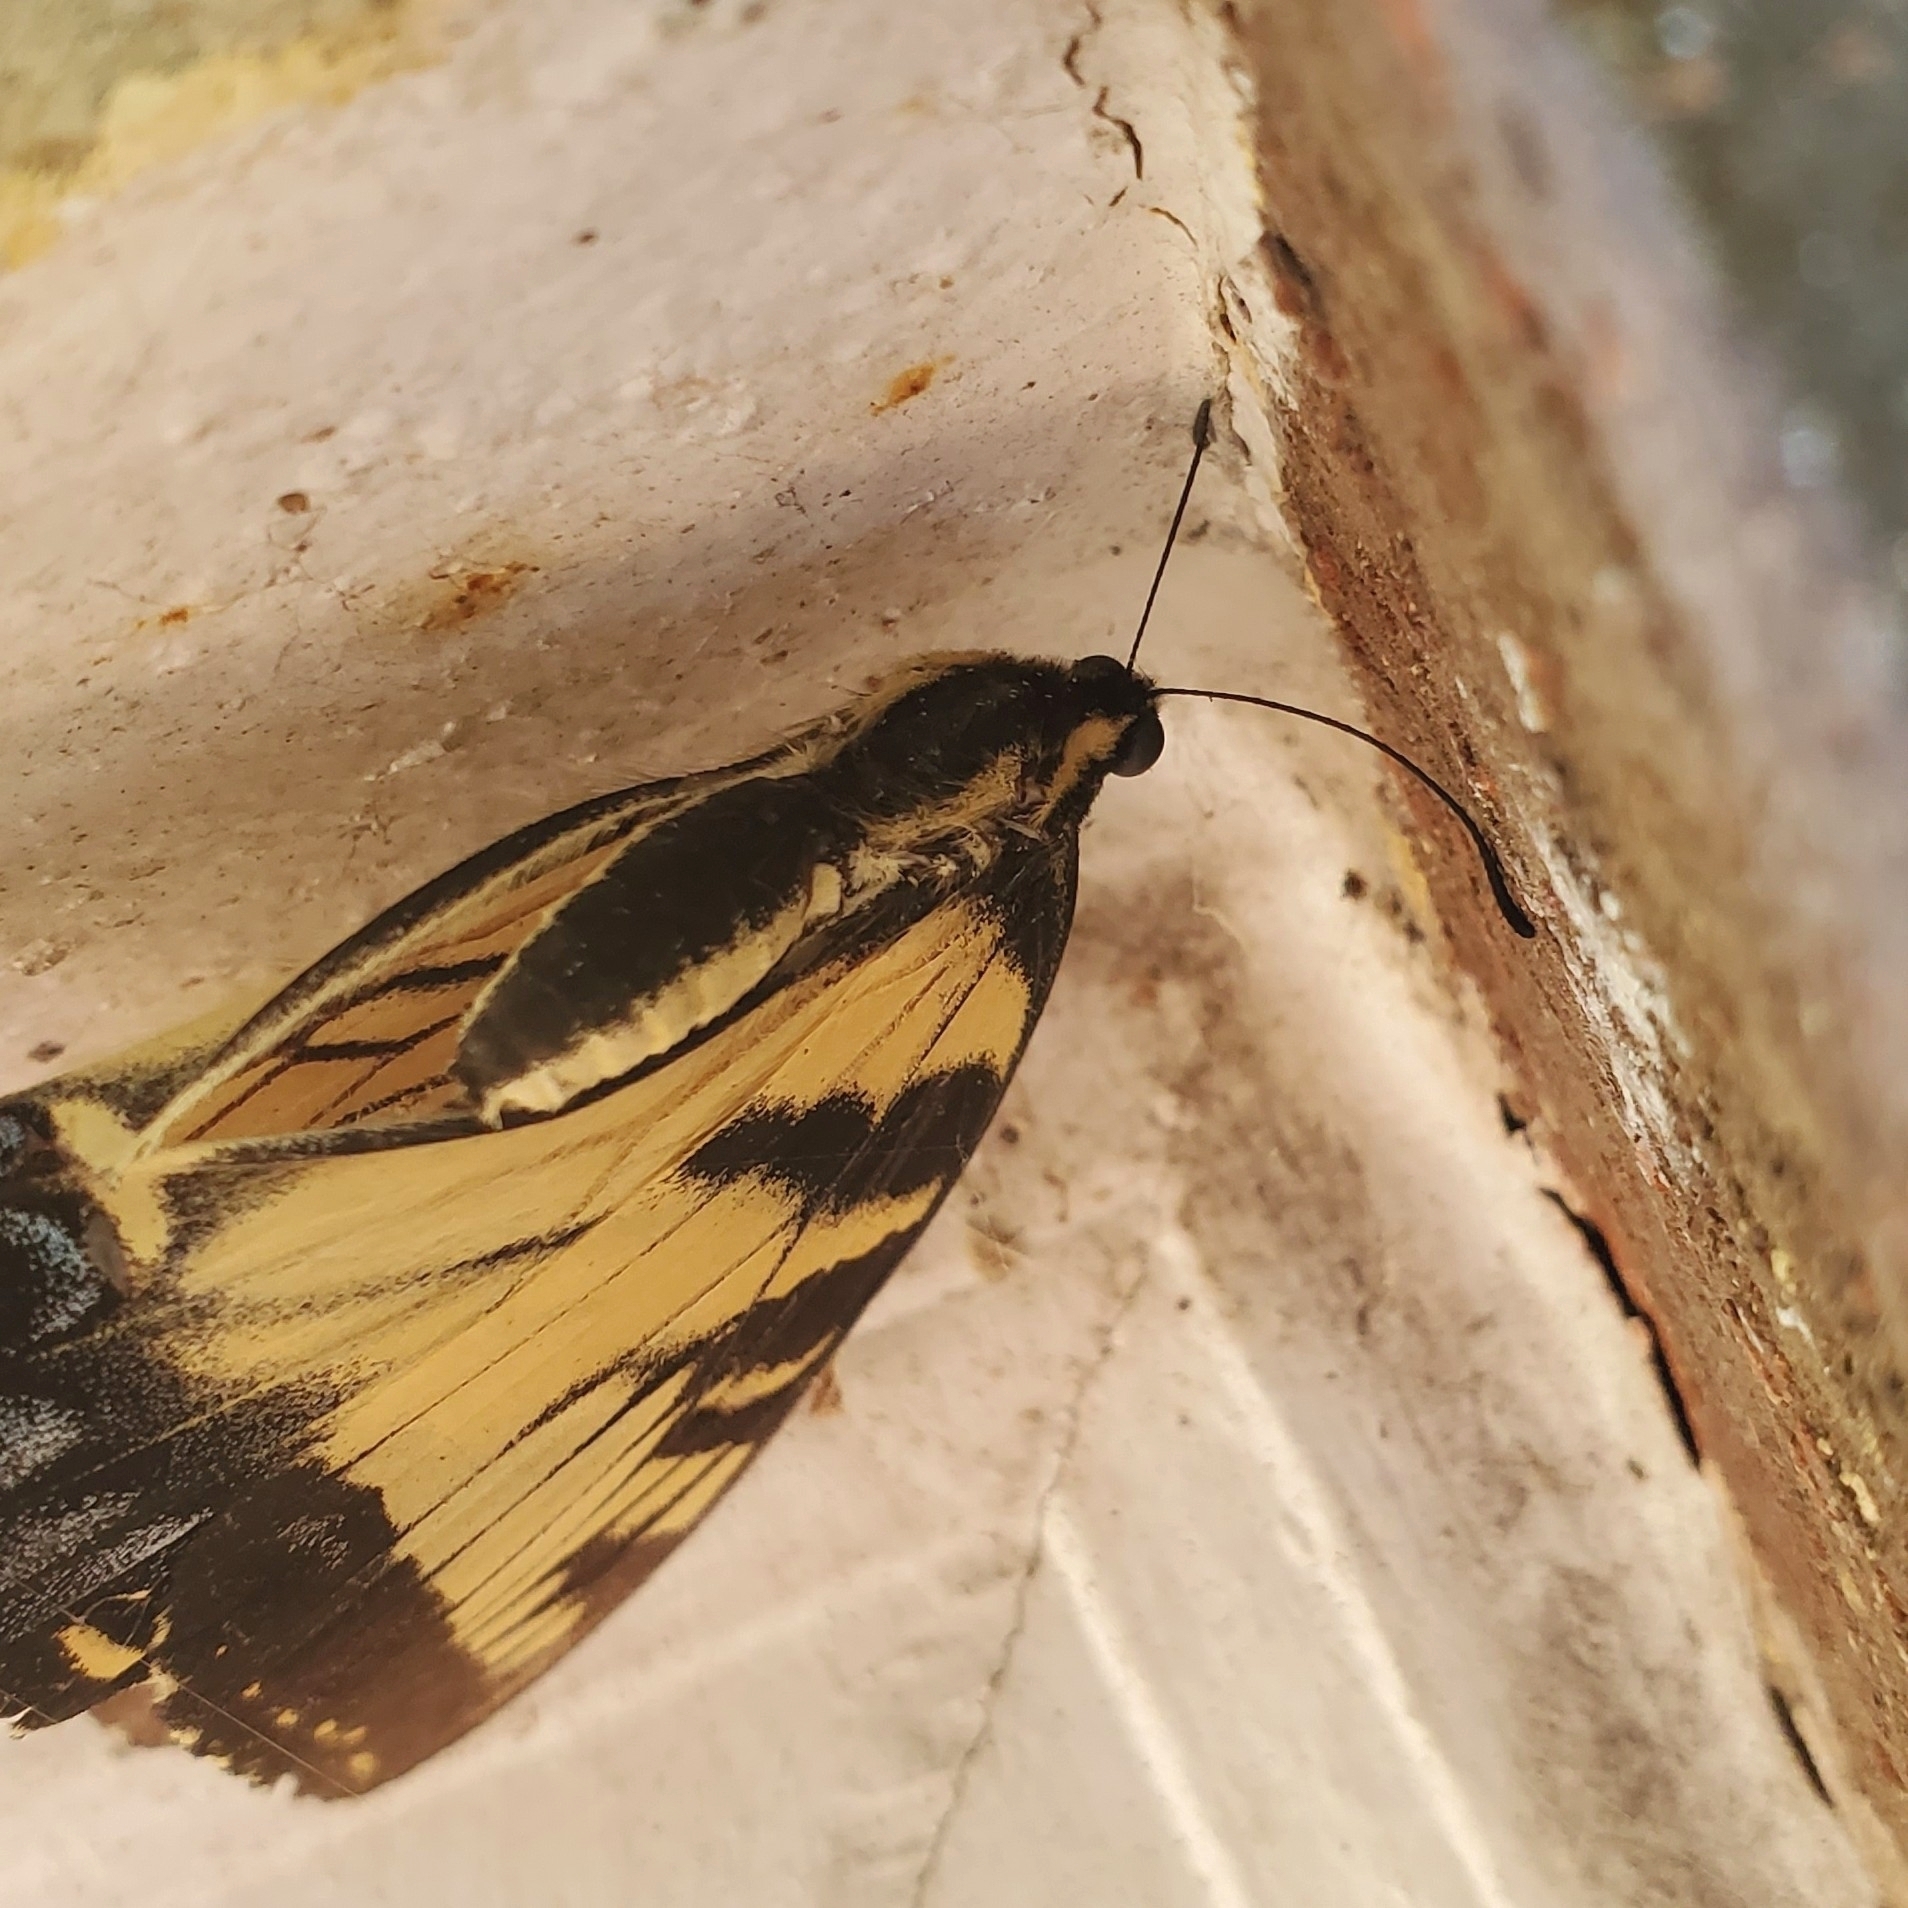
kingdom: Animalia
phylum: Arthropoda
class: Insecta
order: Lepidoptera
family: Papilionidae
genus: Papilio
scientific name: Papilio glaucus
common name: Tiger swallowtail
